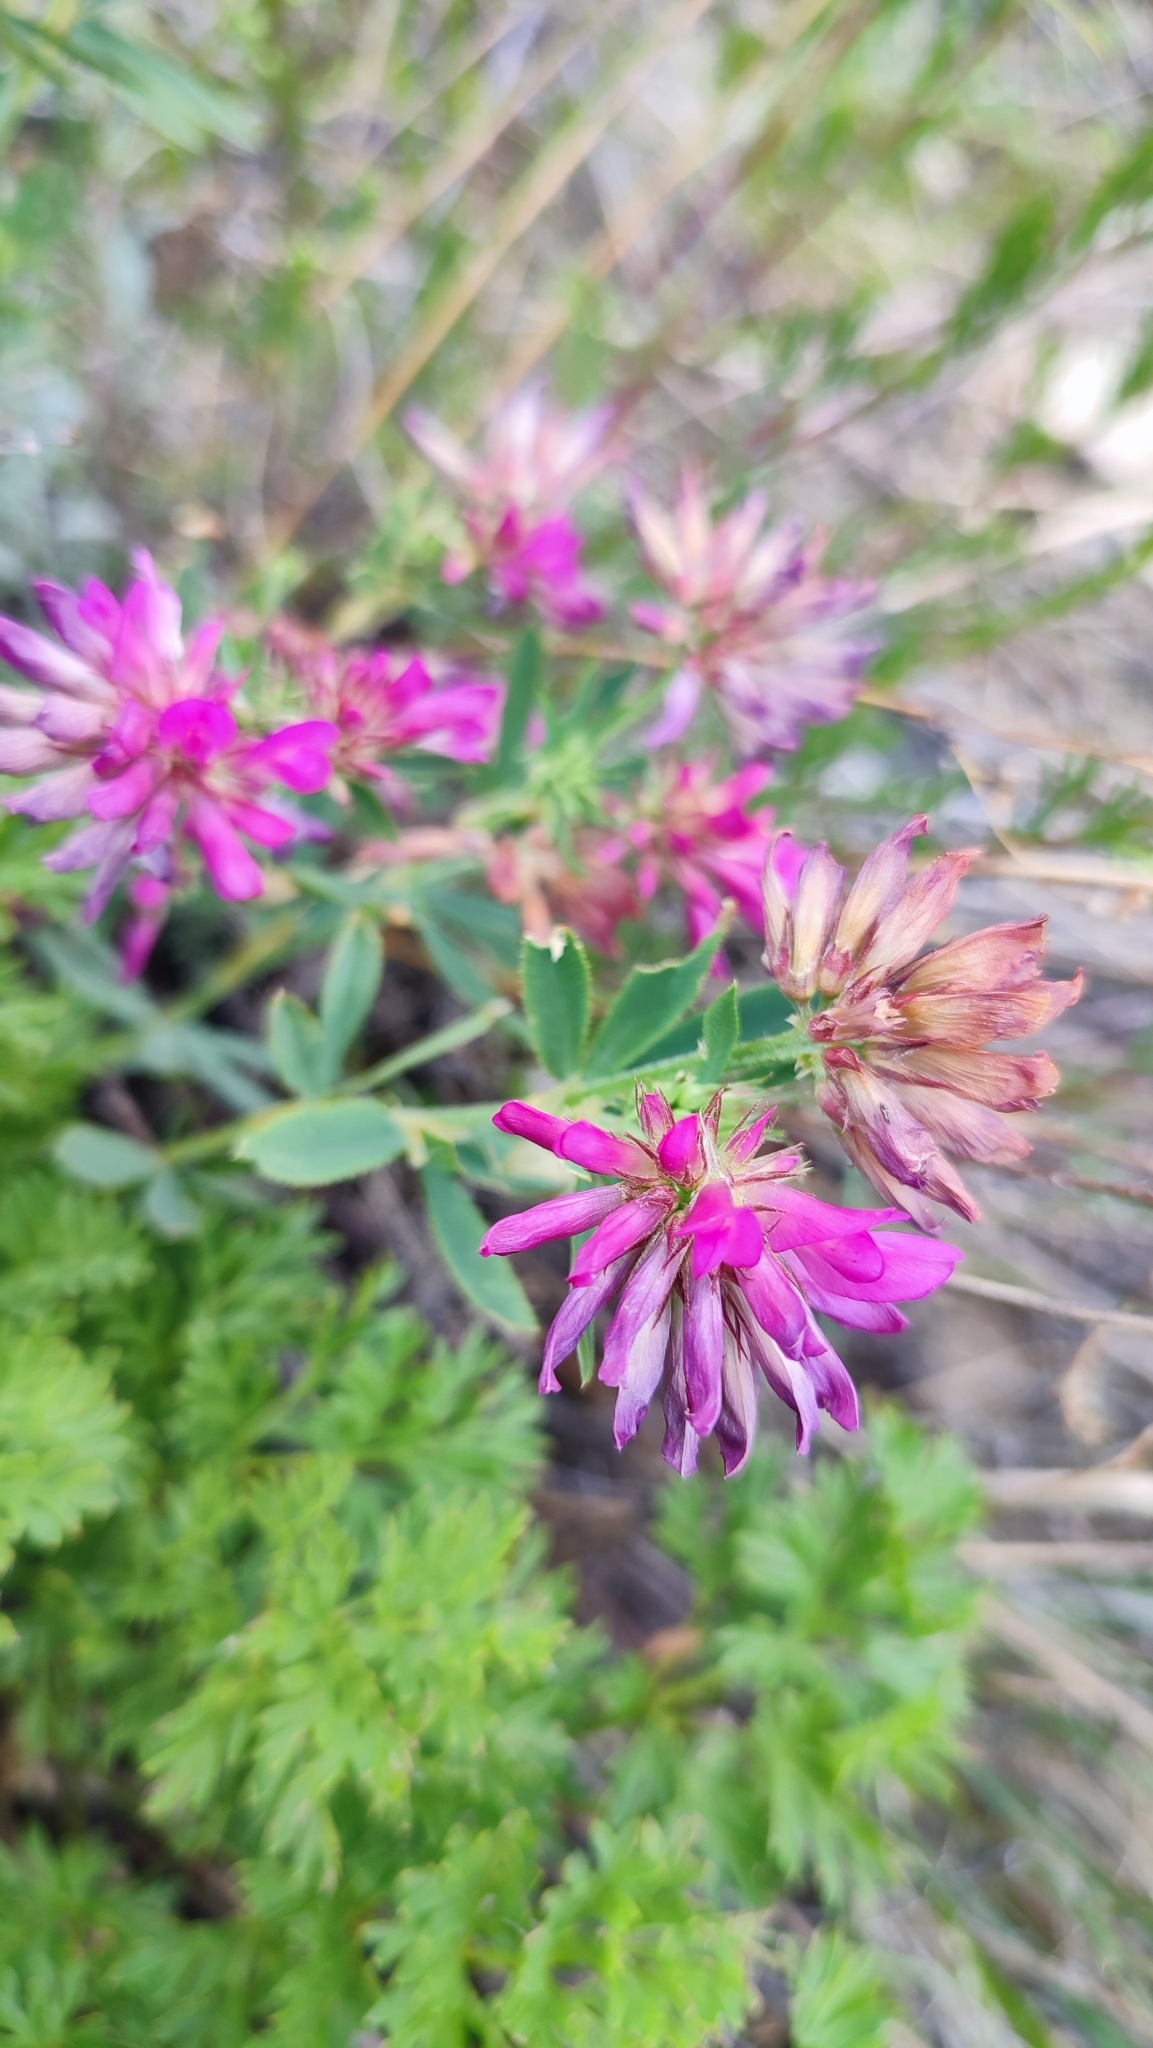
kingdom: Plantae
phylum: Tracheophyta
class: Magnoliopsida
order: Fabales
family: Fabaceae
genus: Trifolium
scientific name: Trifolium lupinaster
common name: Lupine clover
